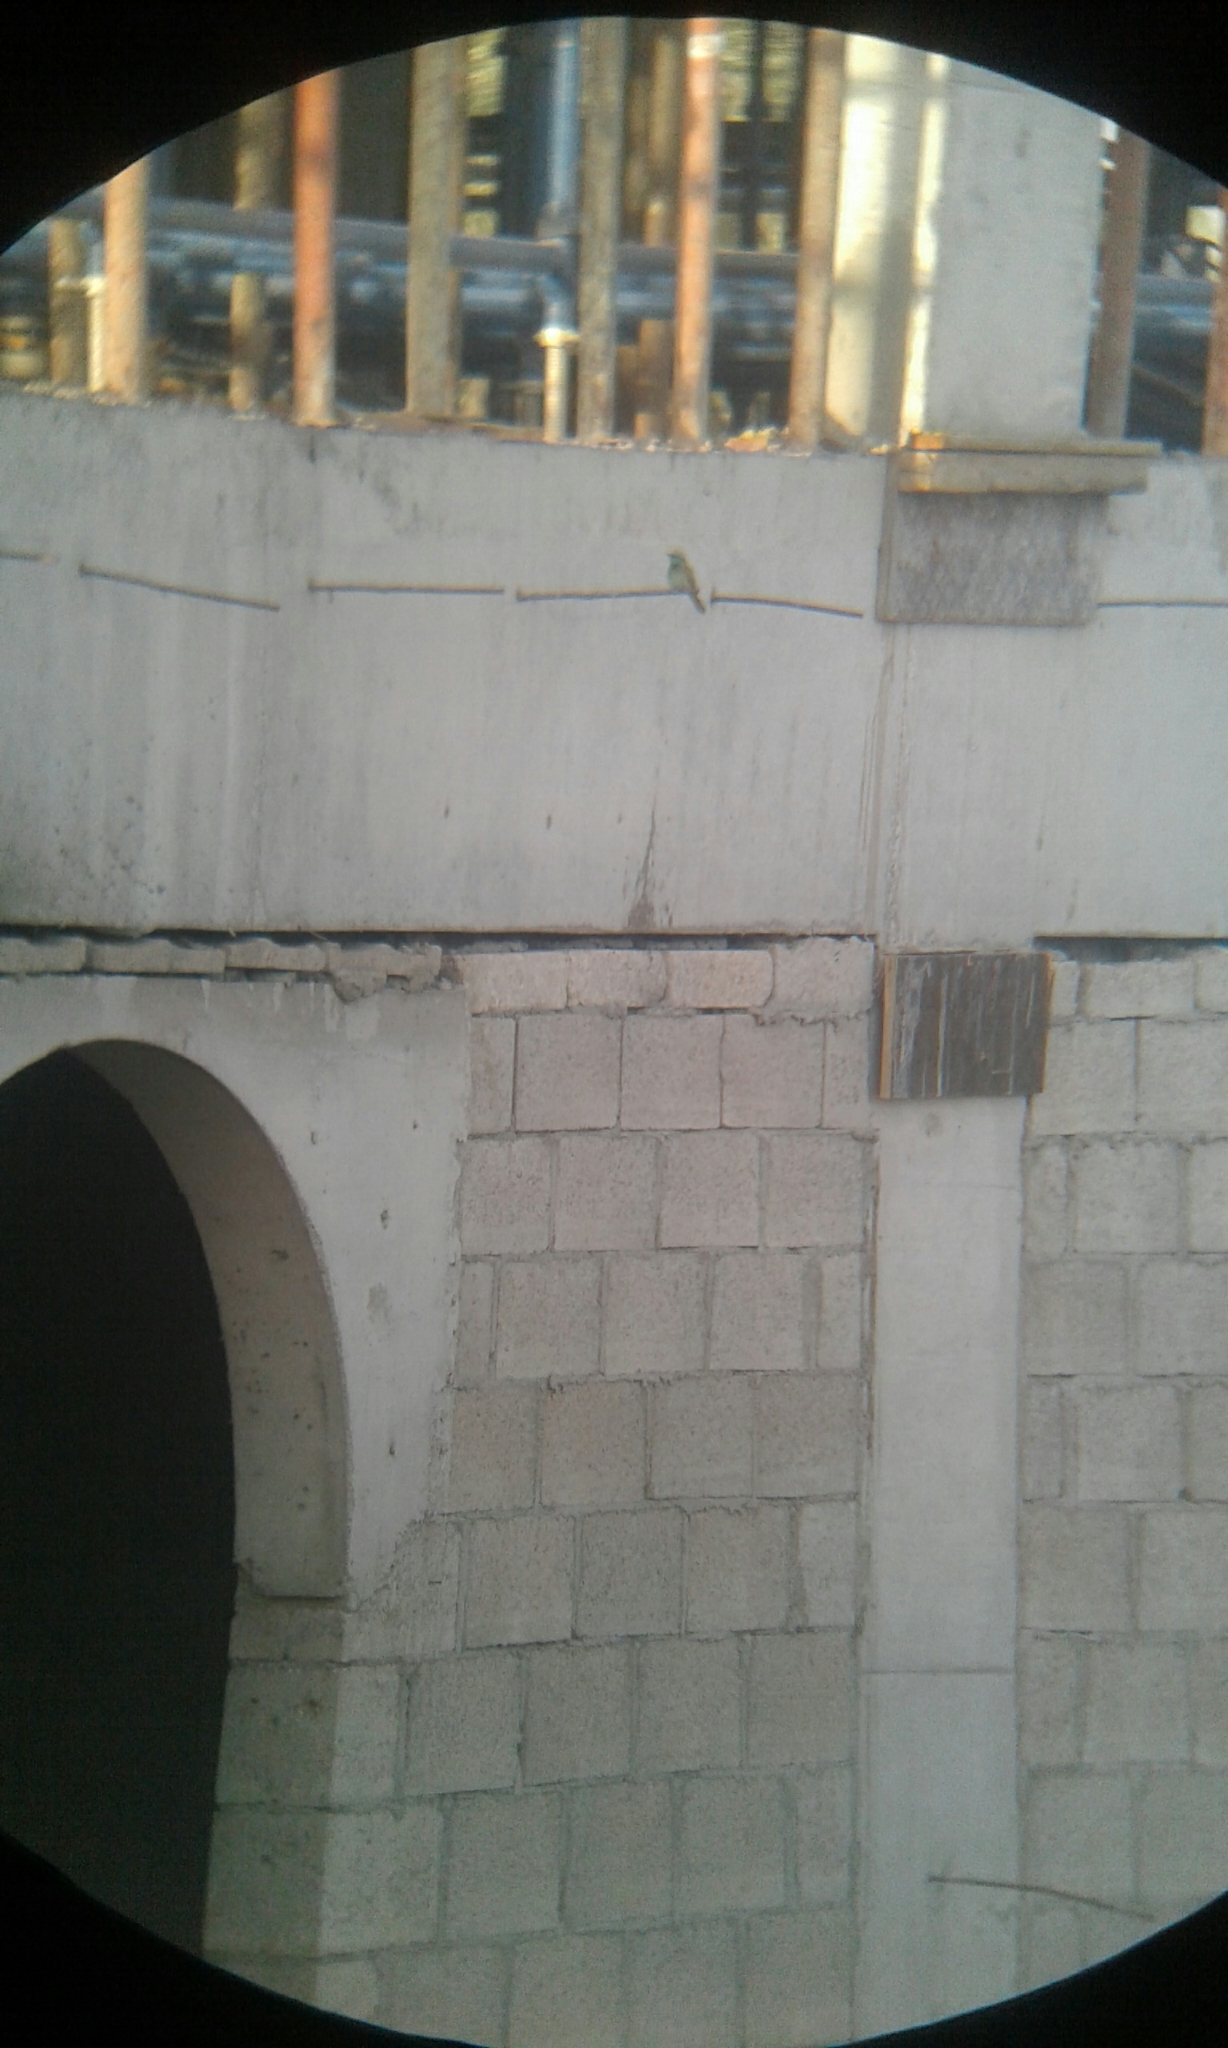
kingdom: Animalia
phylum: Chordata
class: Aves
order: Coraciiformes
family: Meropidae
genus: Merops
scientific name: Merops cyanophrys
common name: Arabian green bee-eater
